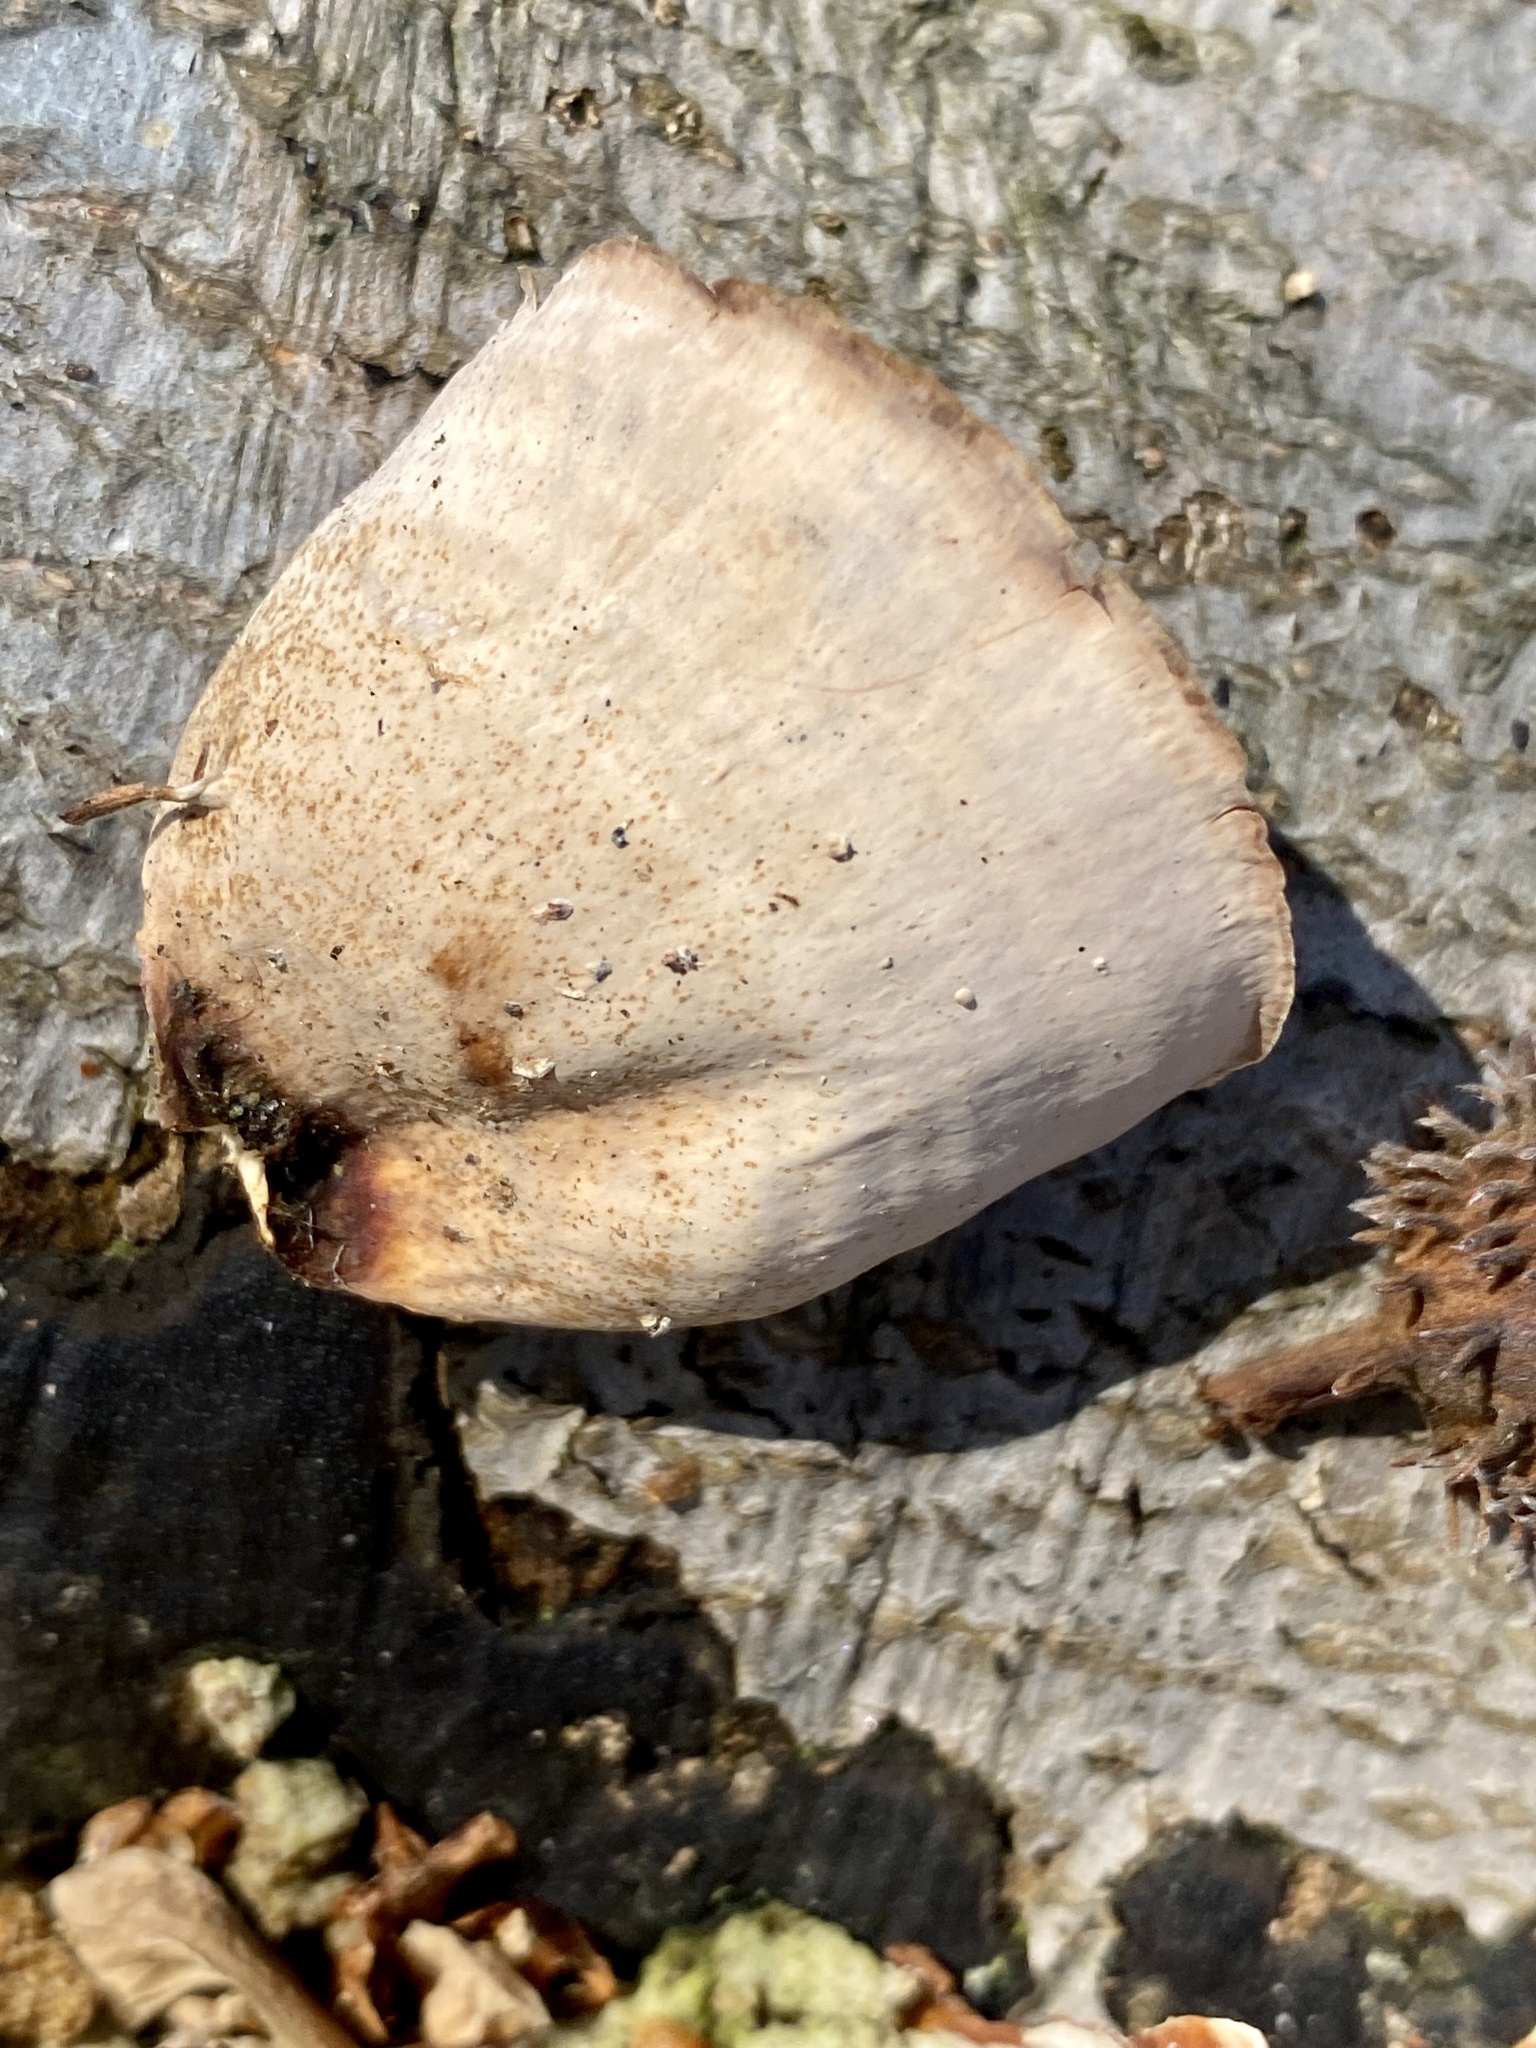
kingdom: Fungi
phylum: Basidiomycota
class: Agaricomycetes
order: Russulales
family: Stereaceae
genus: Stereum
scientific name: Stereum lobatum
